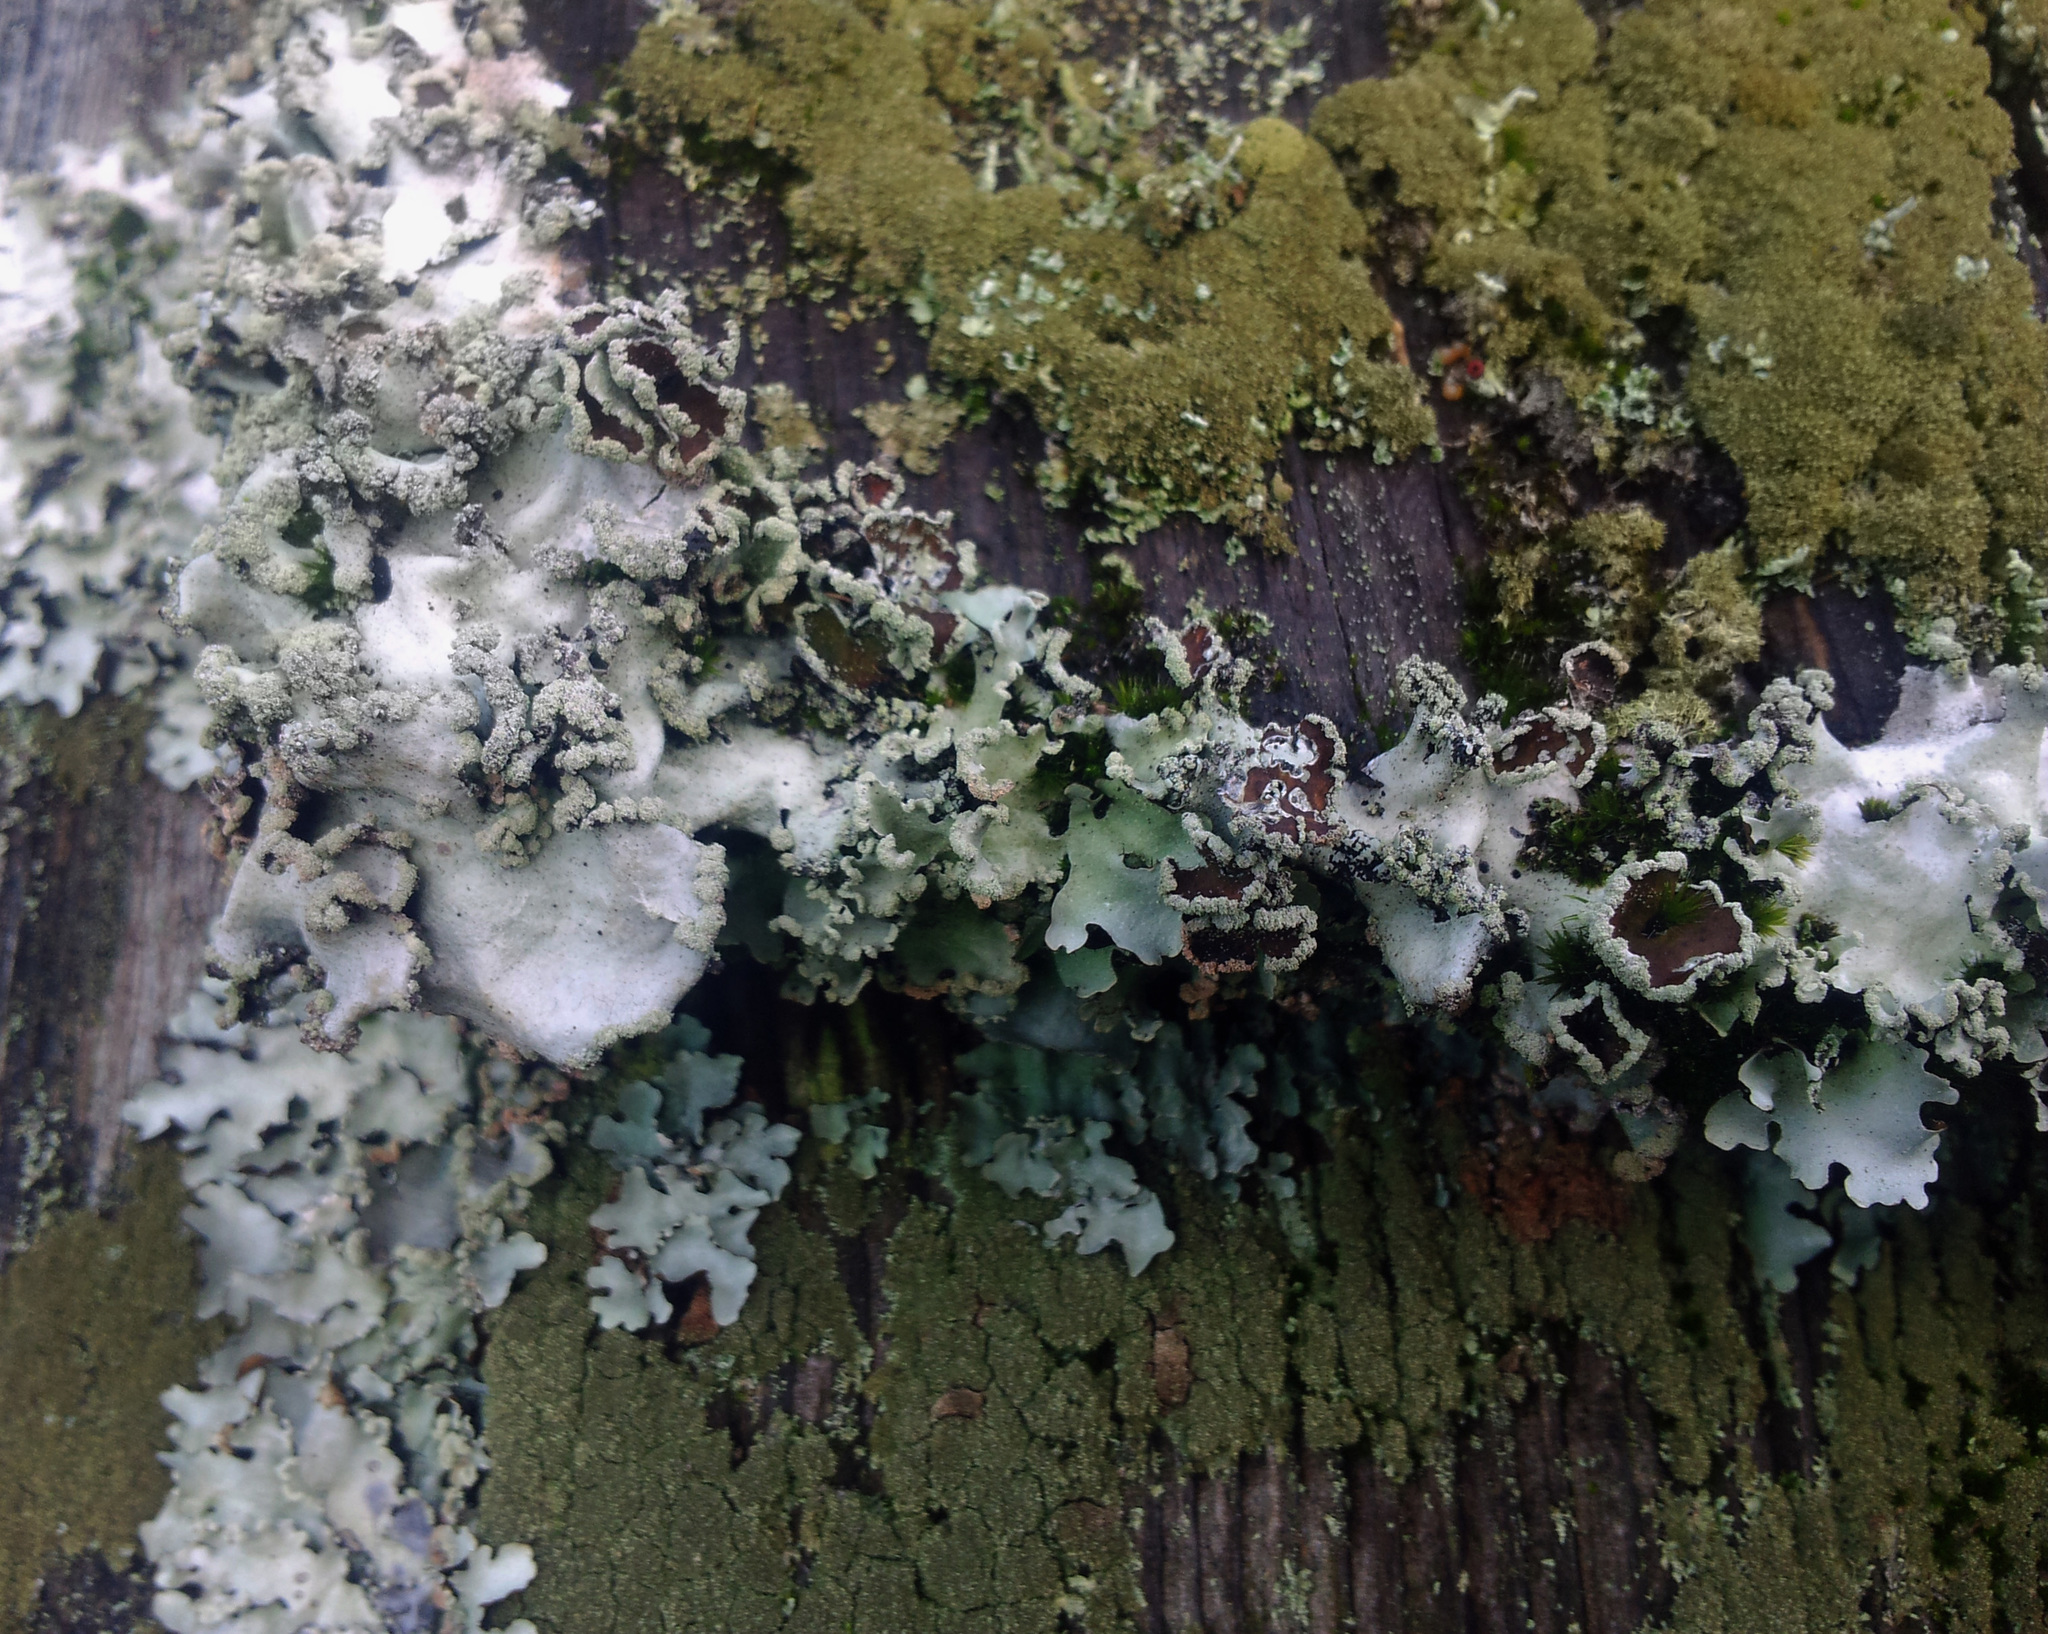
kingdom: Fungi
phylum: Ascomycota
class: Lecanoromycetes
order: Lecanorales
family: Parmeliaceae
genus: Parmotrema
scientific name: Parmotrema reticulatum
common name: Black sheet lichen
